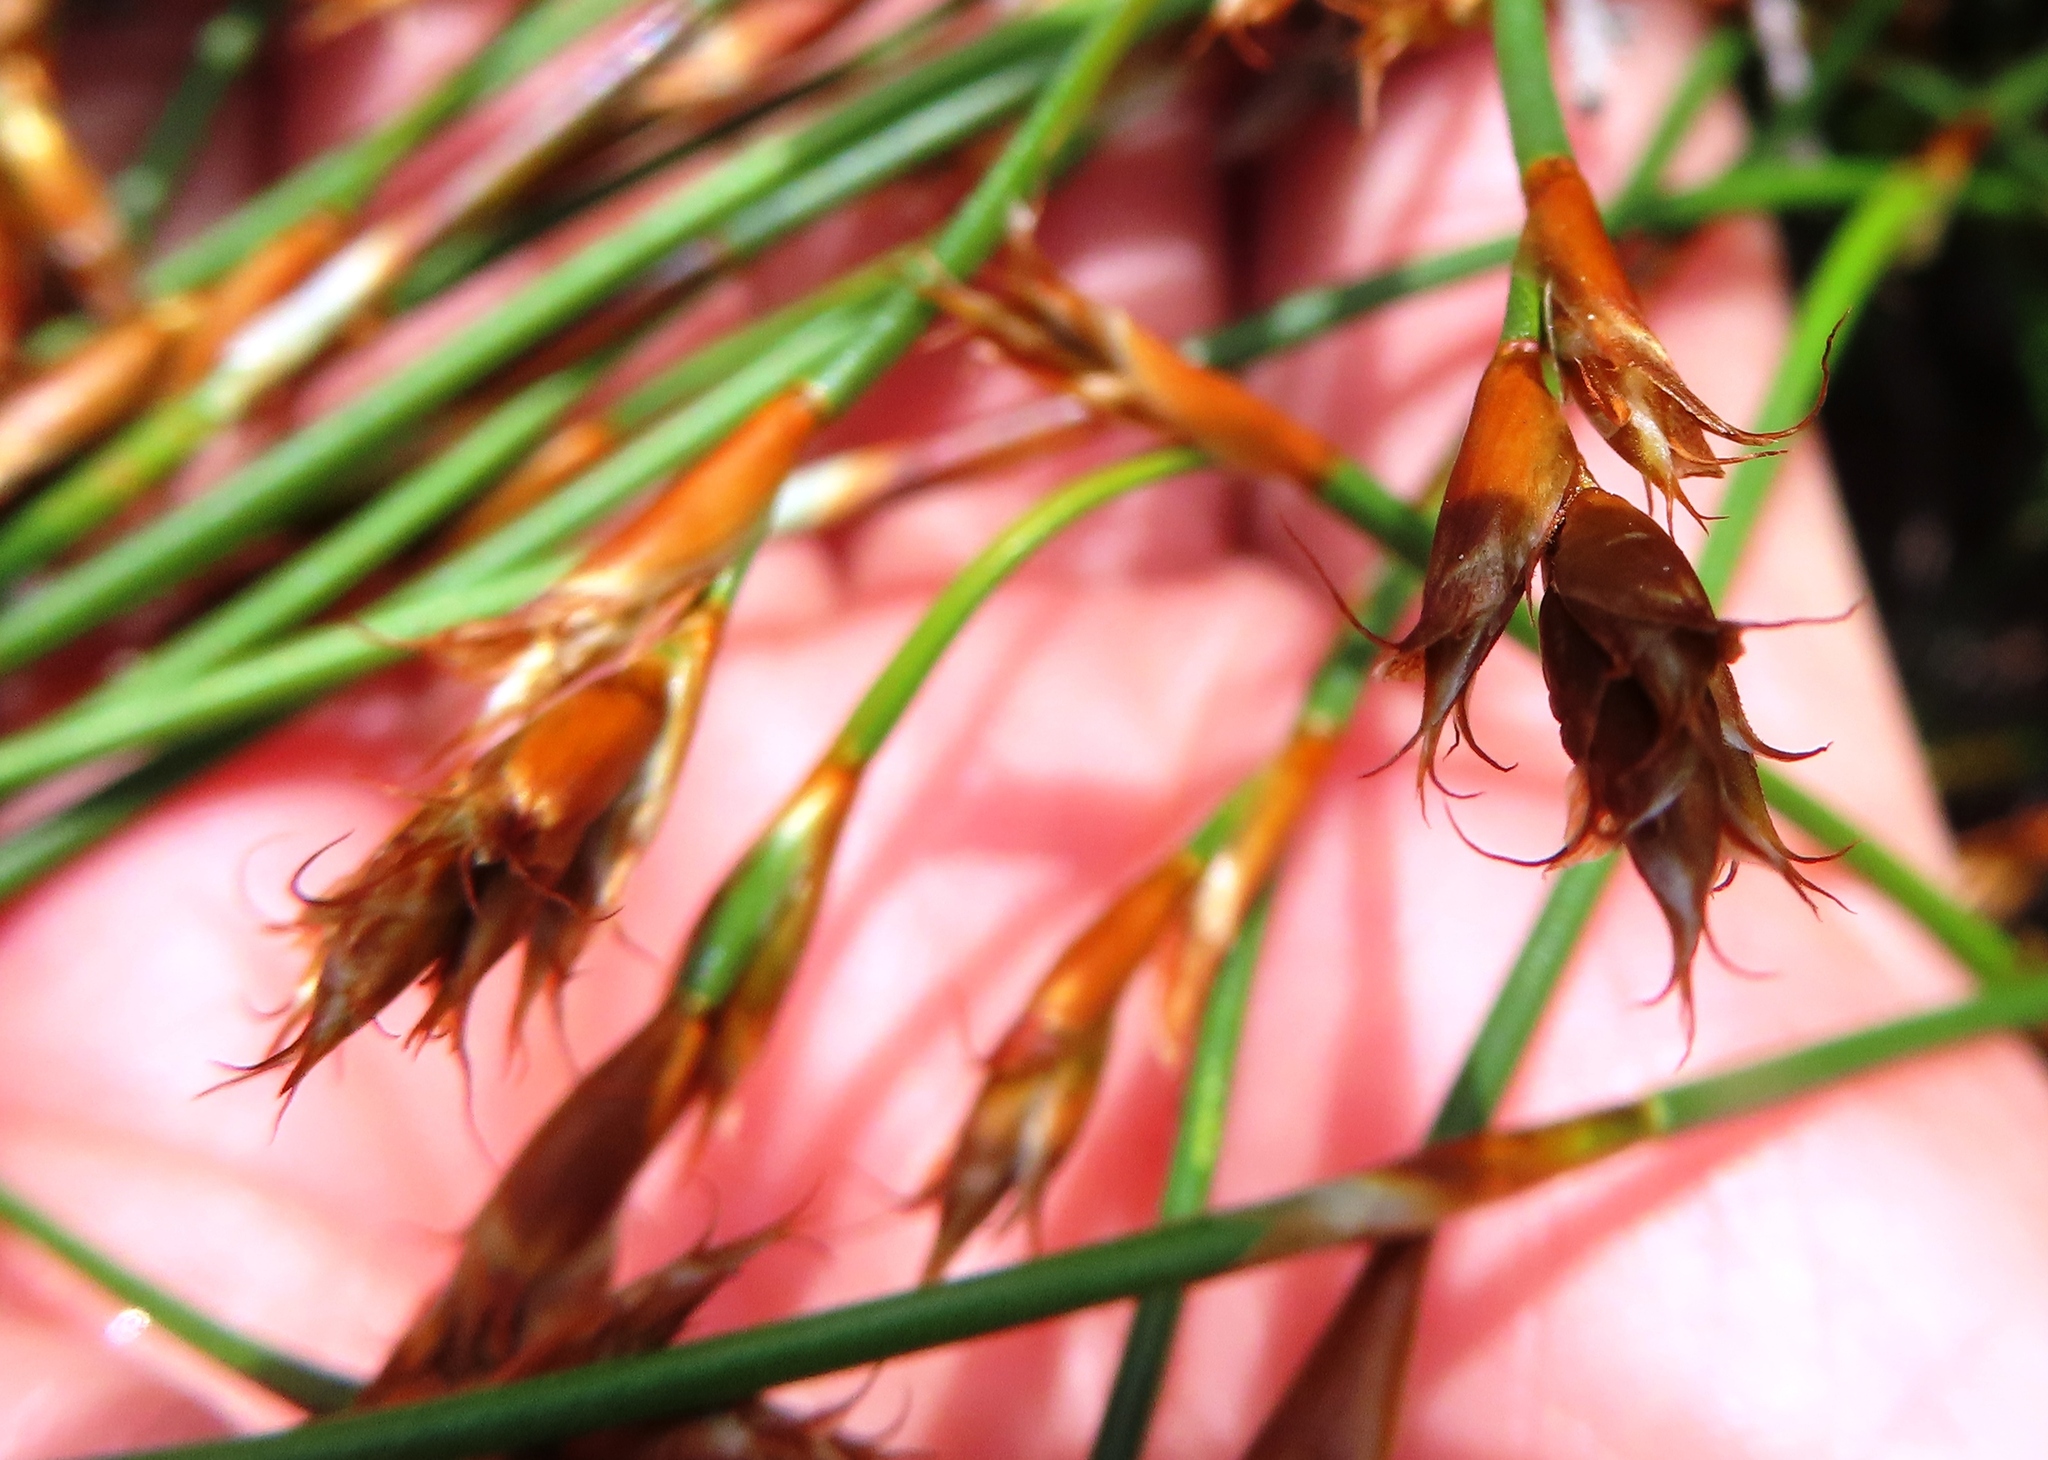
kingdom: Plantae
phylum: Tracheophyta
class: Liliopsida
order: Poales
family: Restionaceae
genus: Restio
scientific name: Restio capensis
